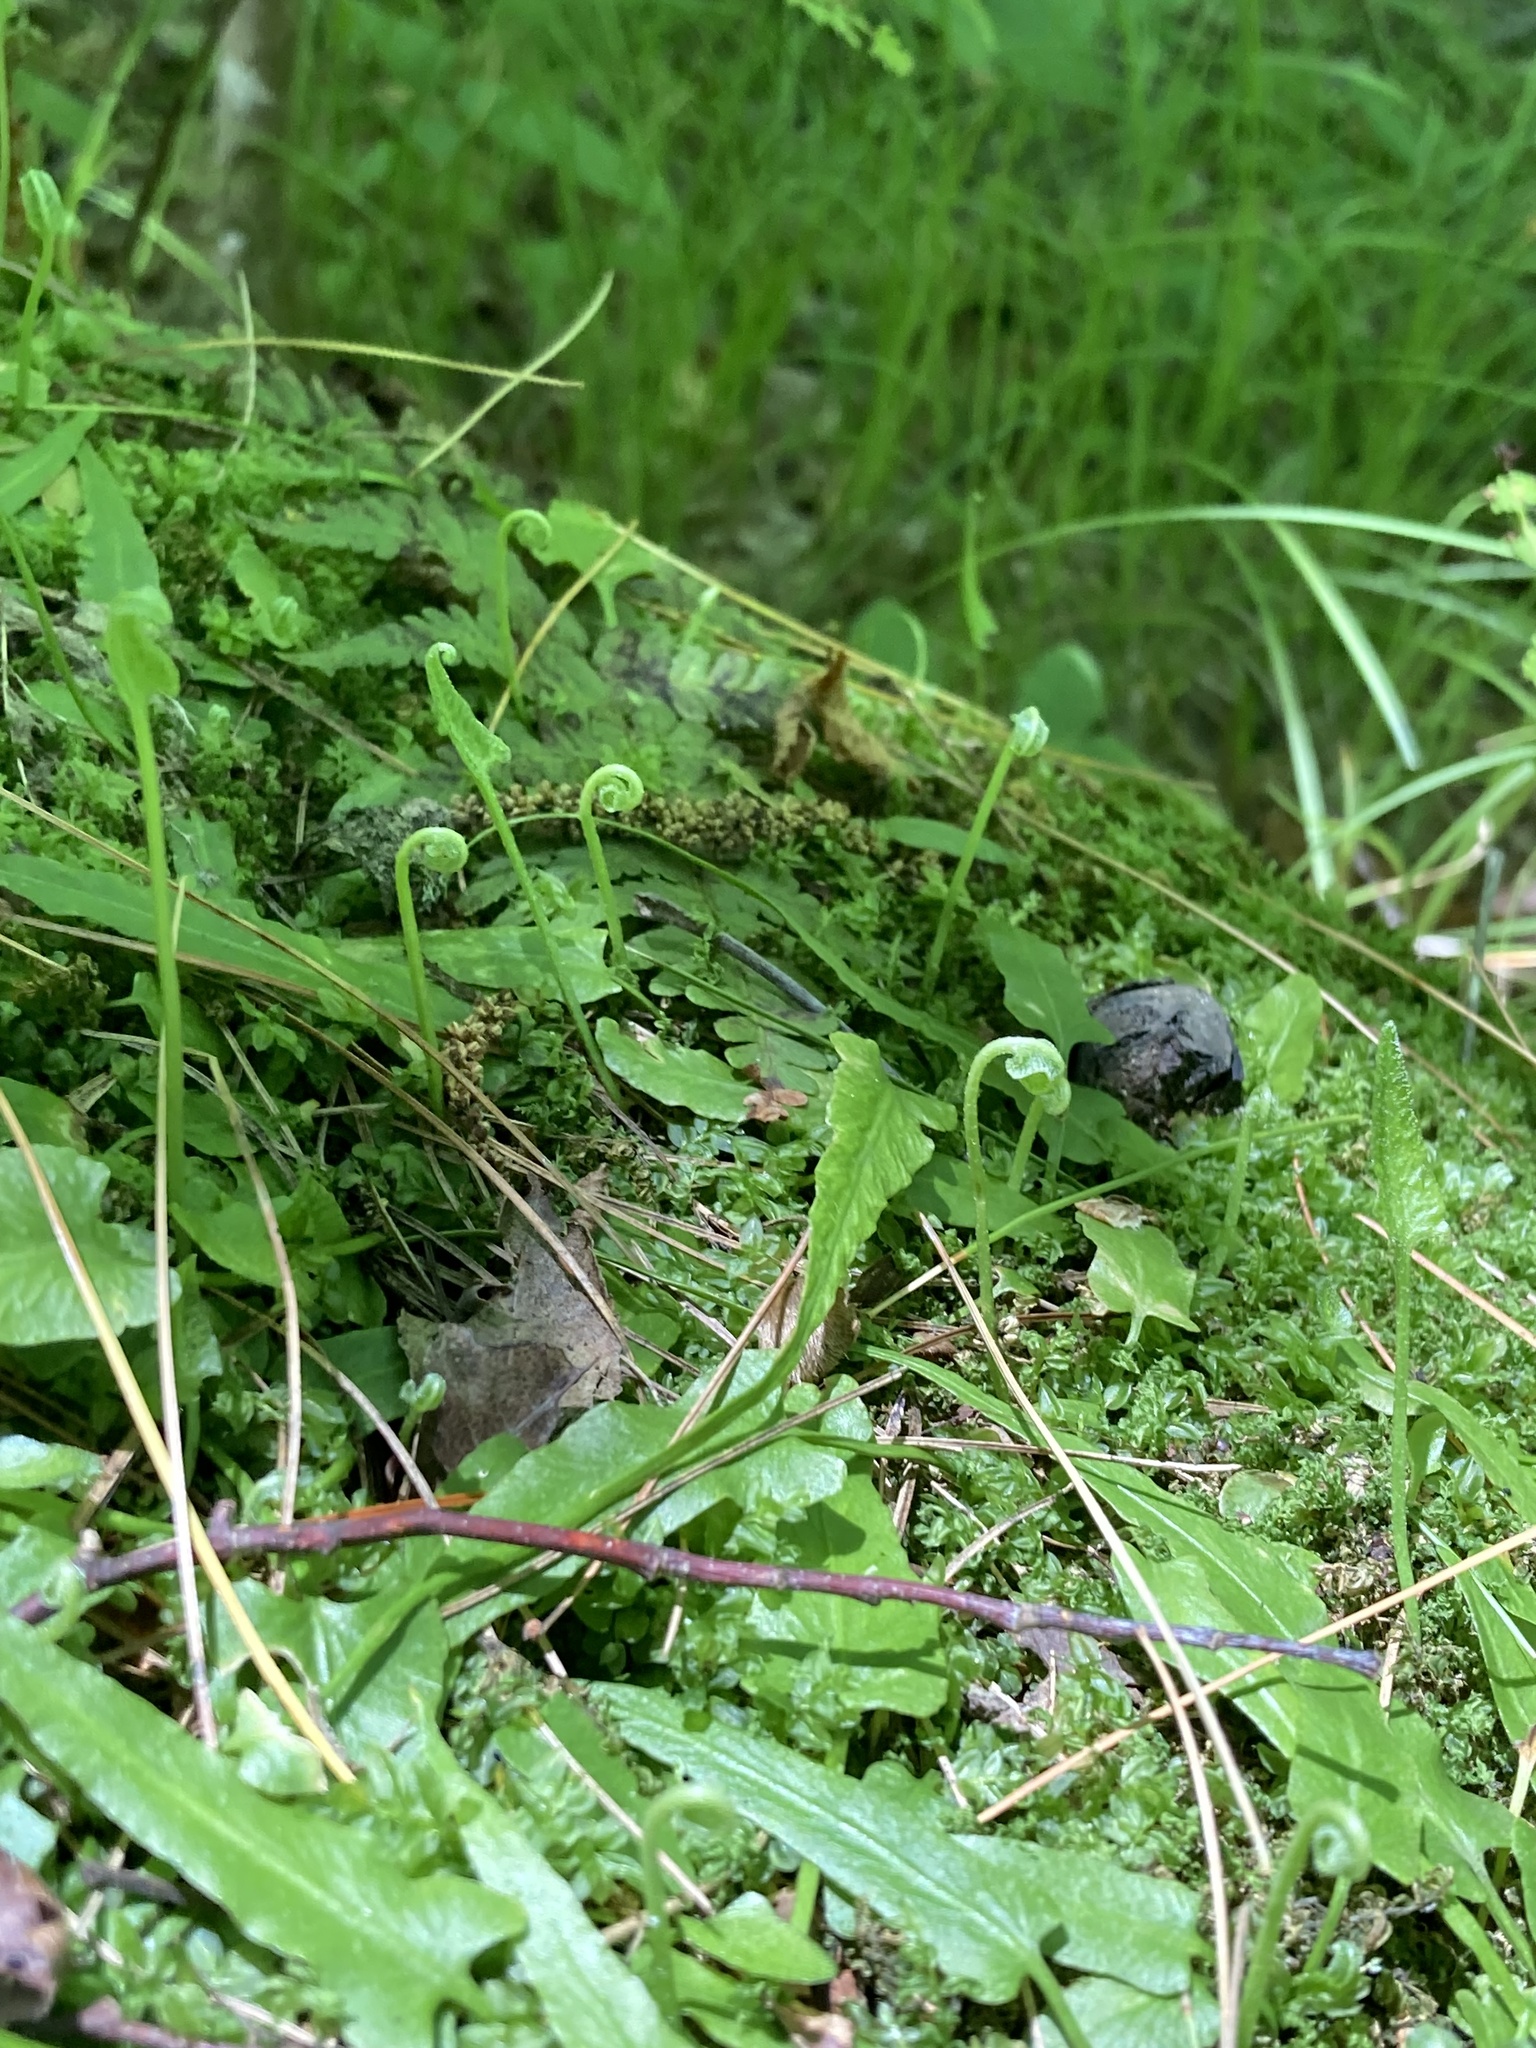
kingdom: Plantae
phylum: Tracheophyta
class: Polypodiopsida
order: Polypodiales
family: Aspleniaceae
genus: Asplenium
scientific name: Asplenium rhizophyllum
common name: Walking fern
